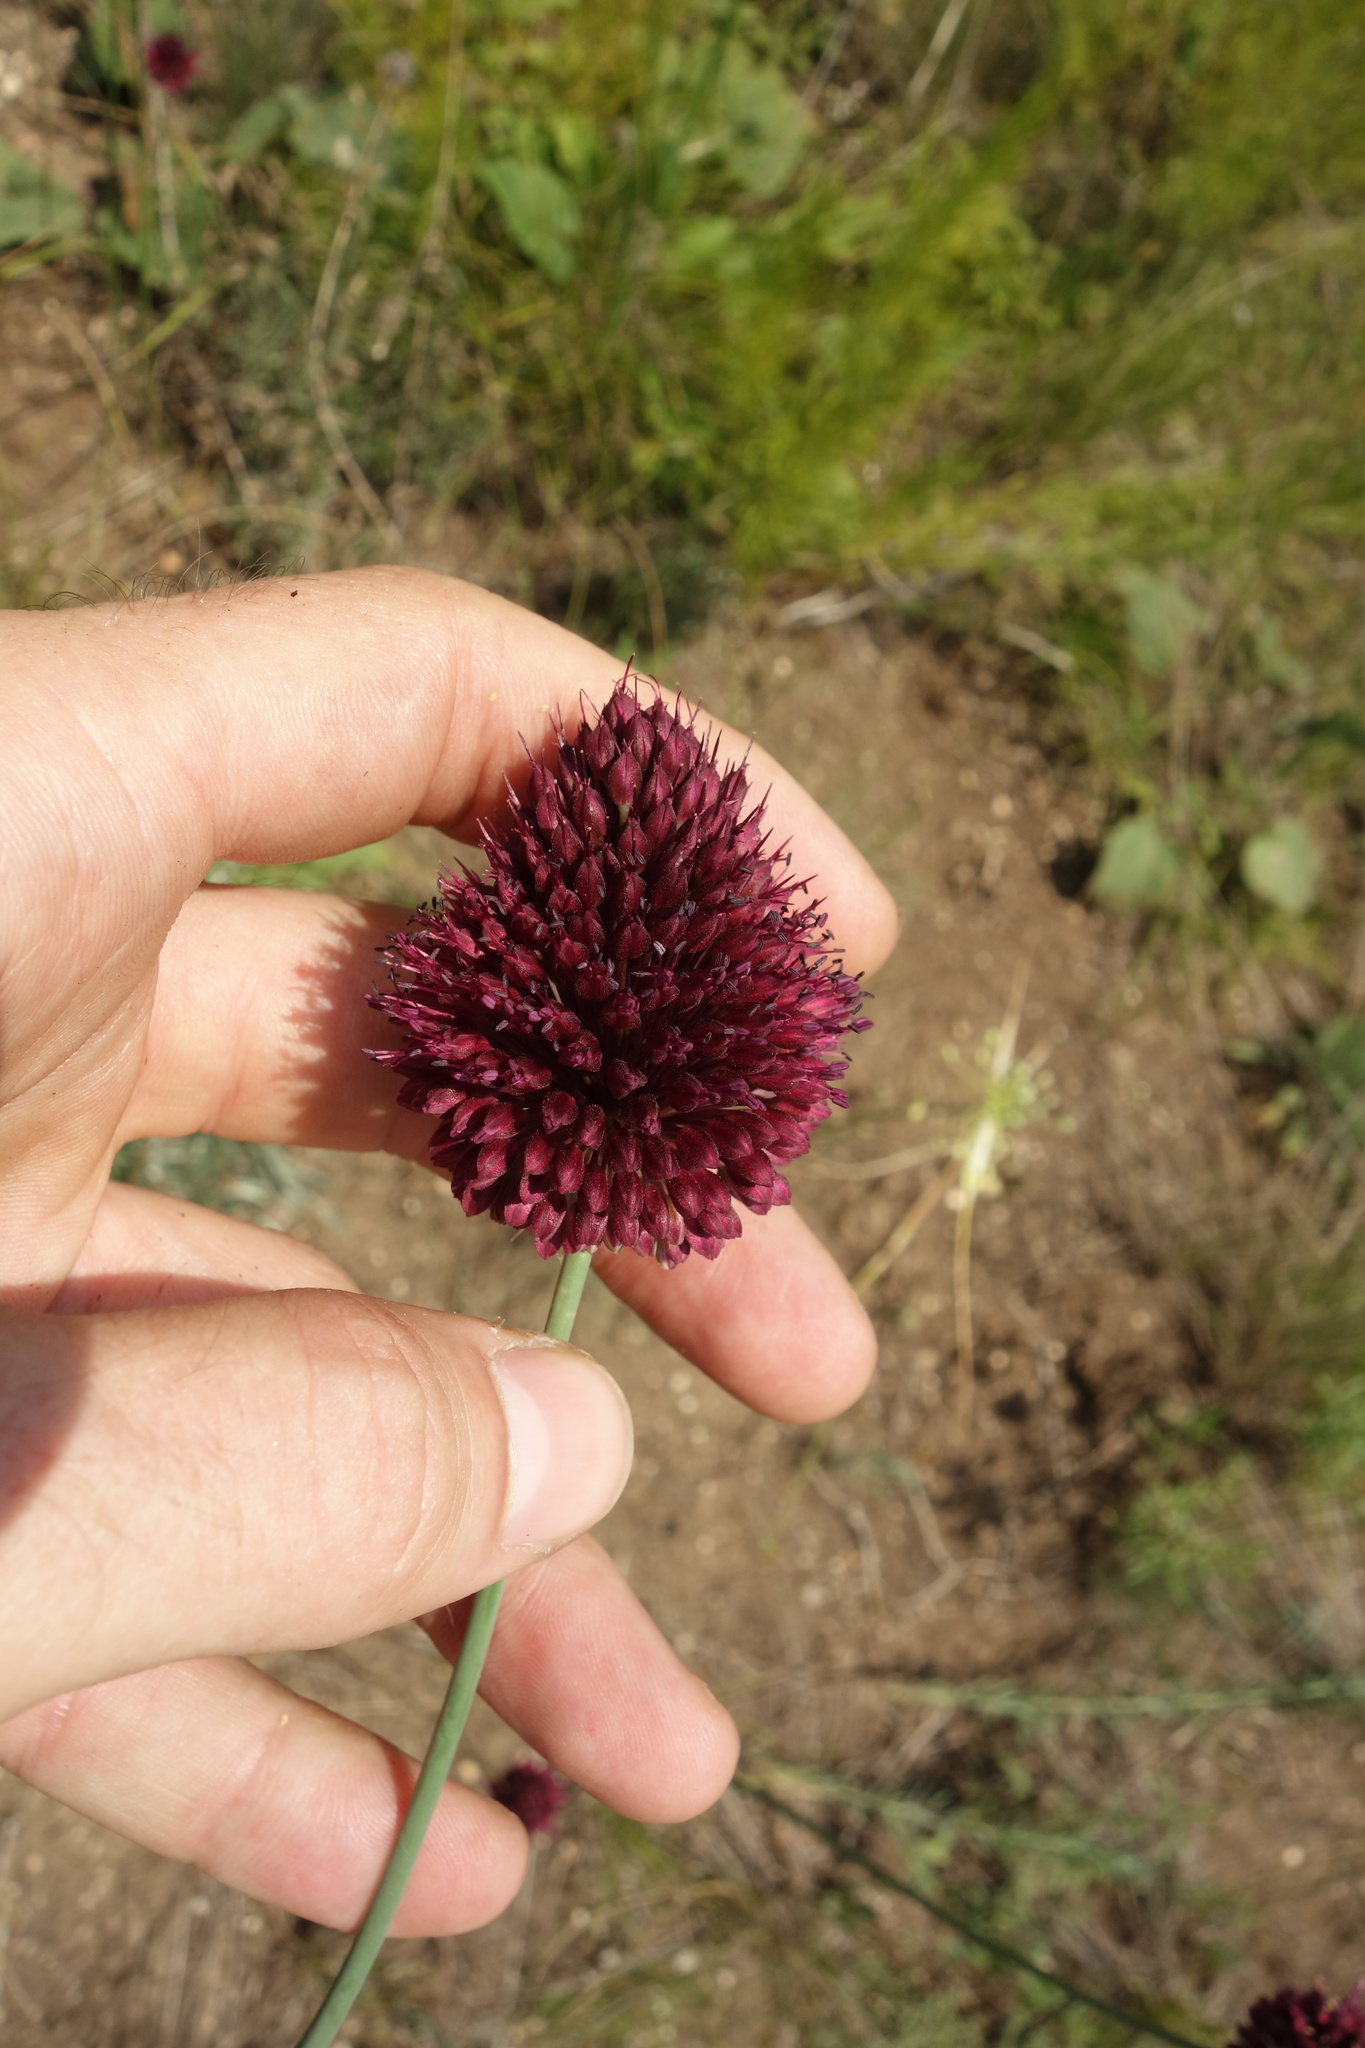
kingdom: Plantae
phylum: Tracheophyta
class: Liliopsida
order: Asparagales
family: Amaryllidaceae
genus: Allium
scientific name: Allium sphaerocephalon
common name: Round-headed leek
